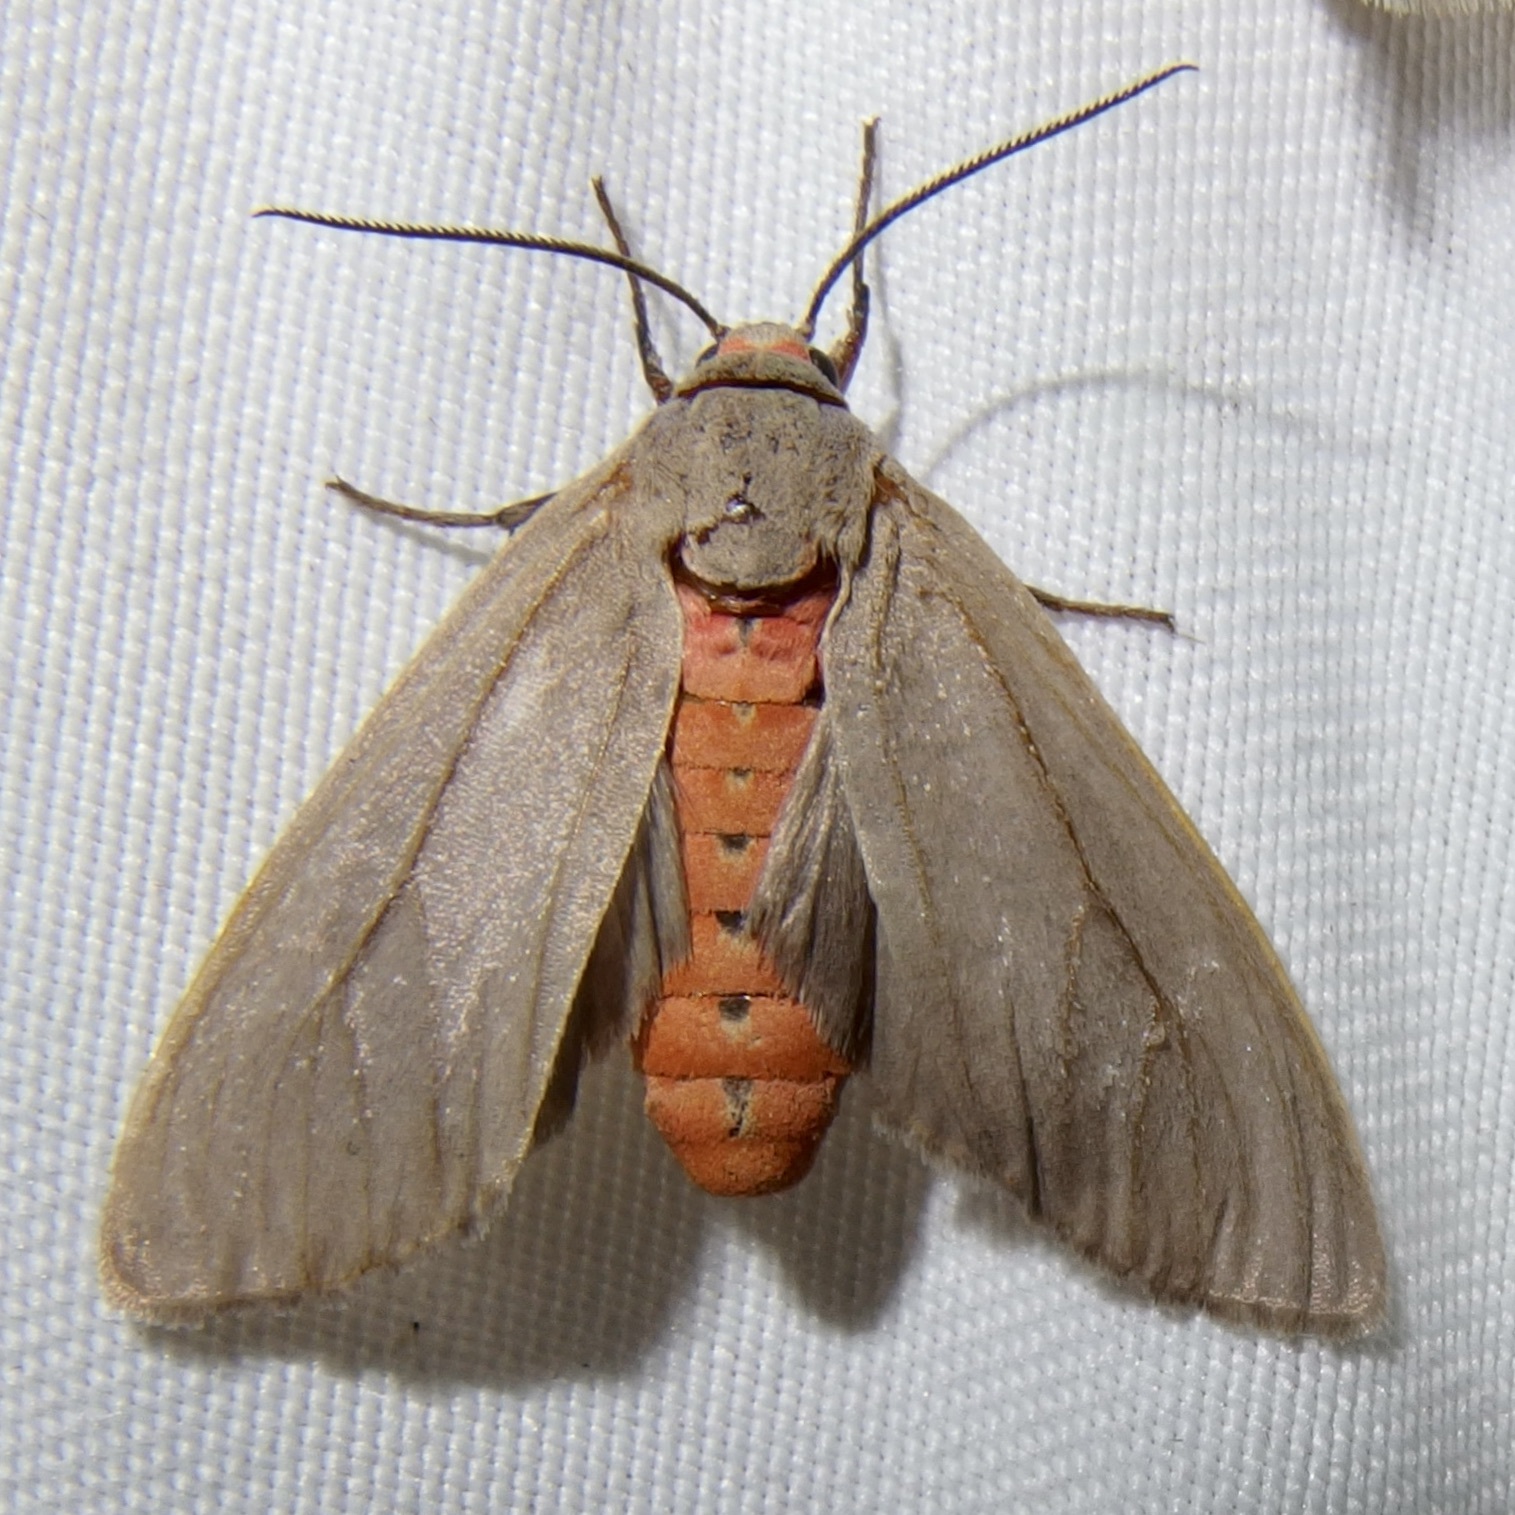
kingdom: Animalia
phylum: Arthropoda
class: Insecta
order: Lepidoptera
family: Erebidae
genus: Pygarctia
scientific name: Pygarctia murina
